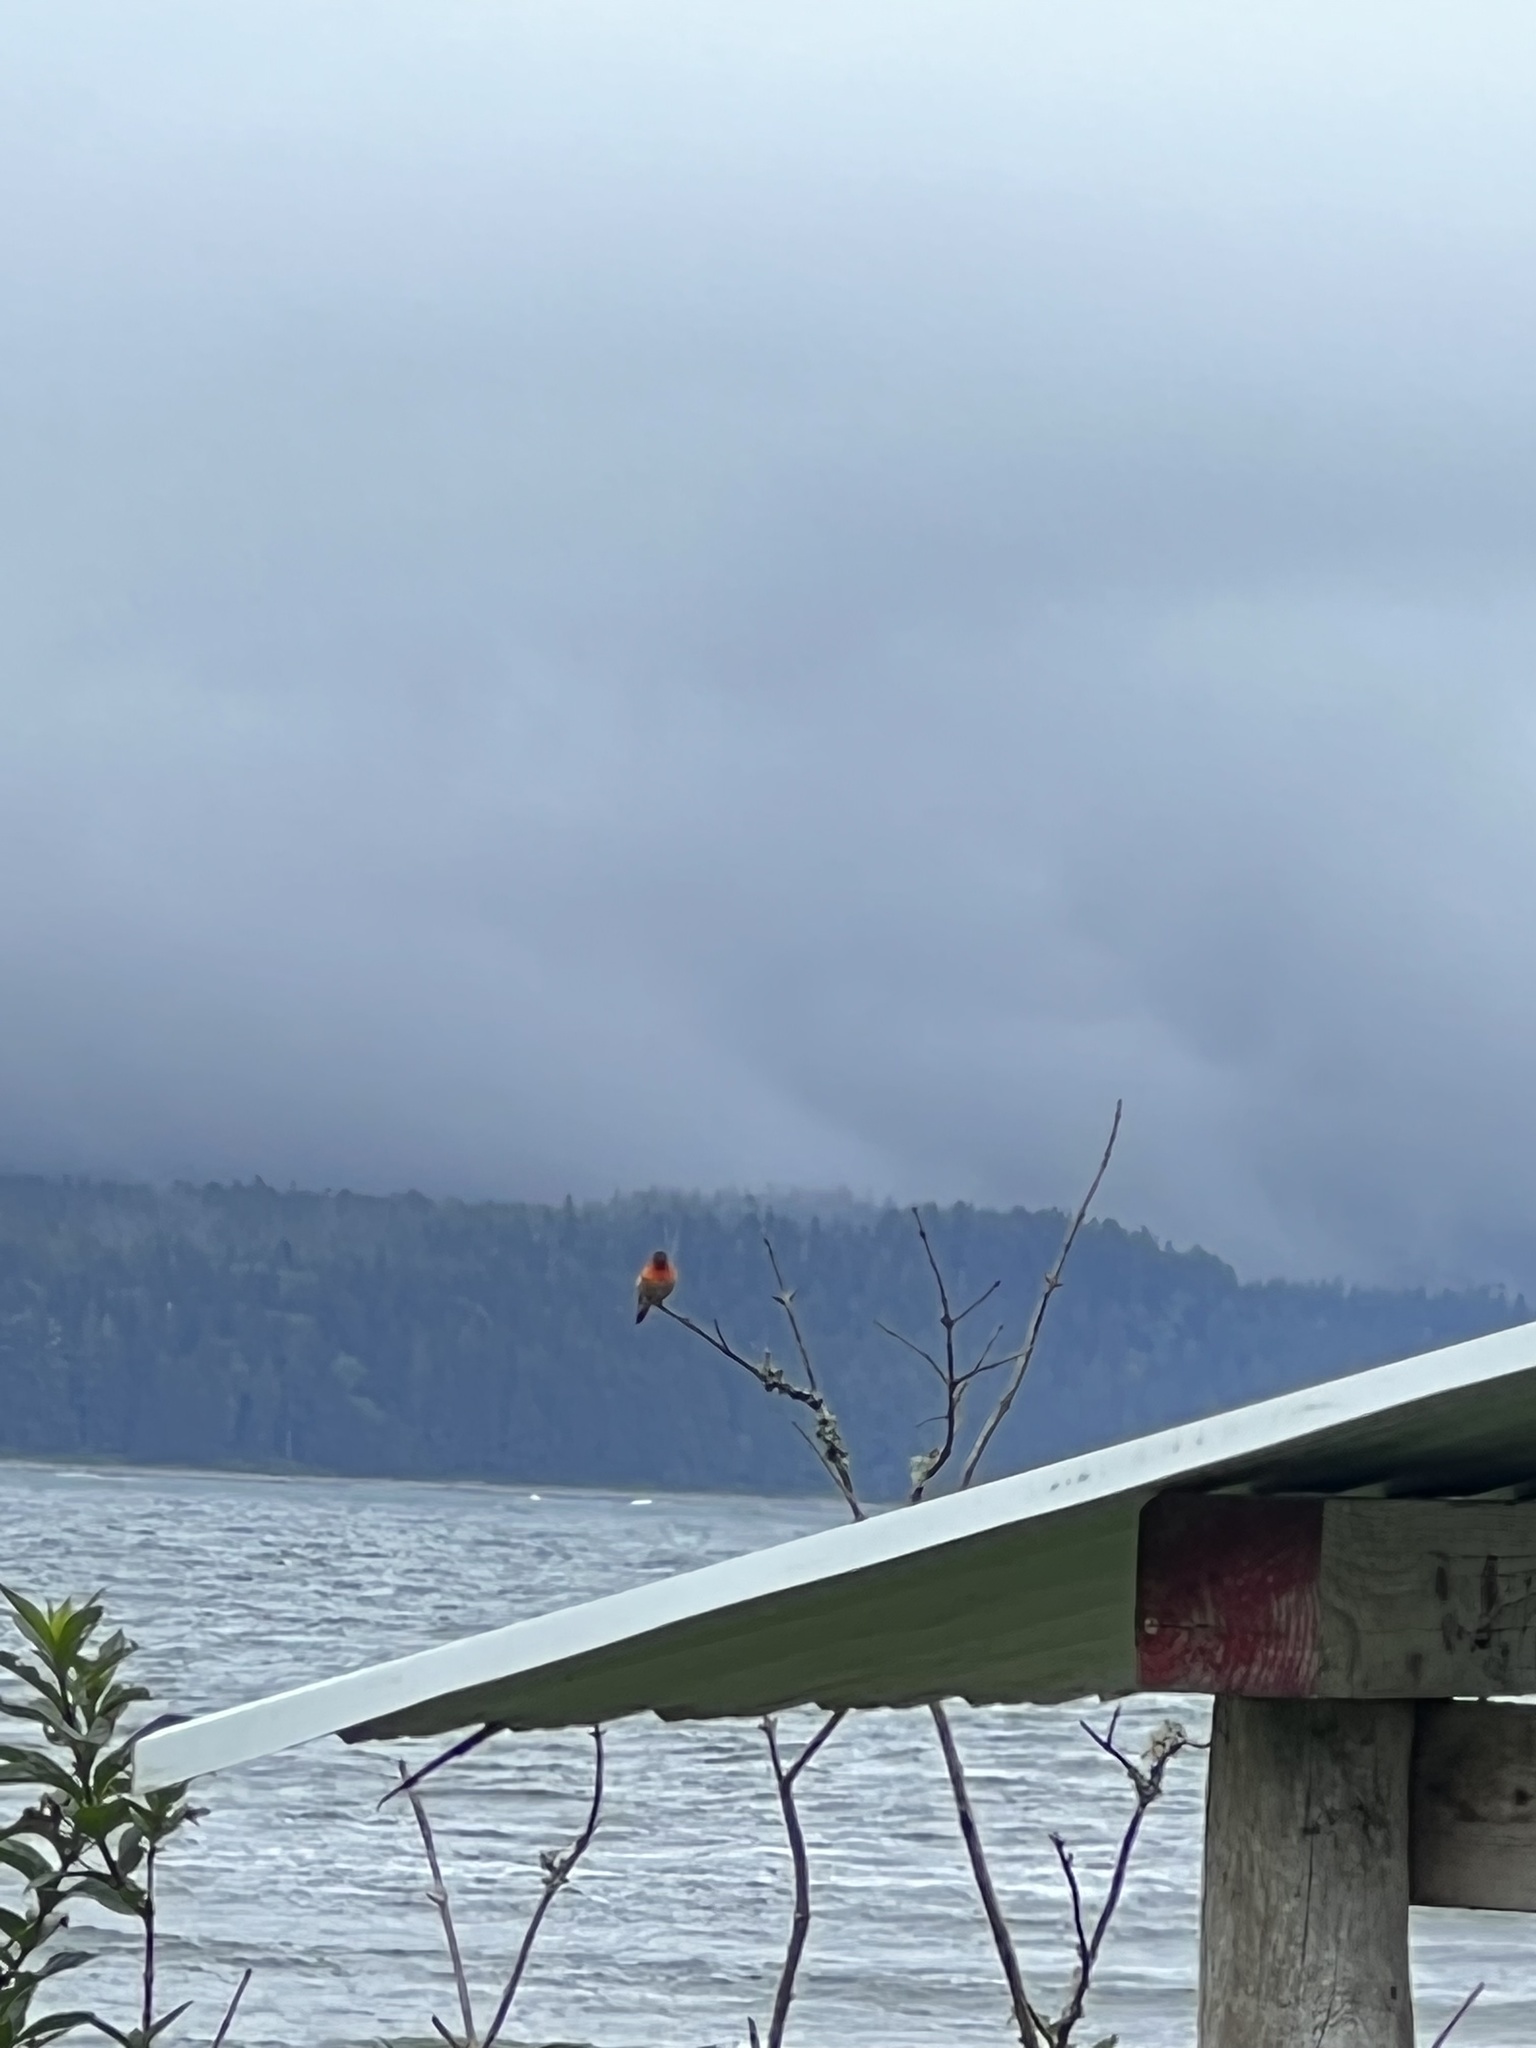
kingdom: Animalia
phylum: Chordata
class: Aves
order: Apodiformes
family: Trochilidae
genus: Selasphorus
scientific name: Selasphorus rufus
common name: Rufous hummingbird
